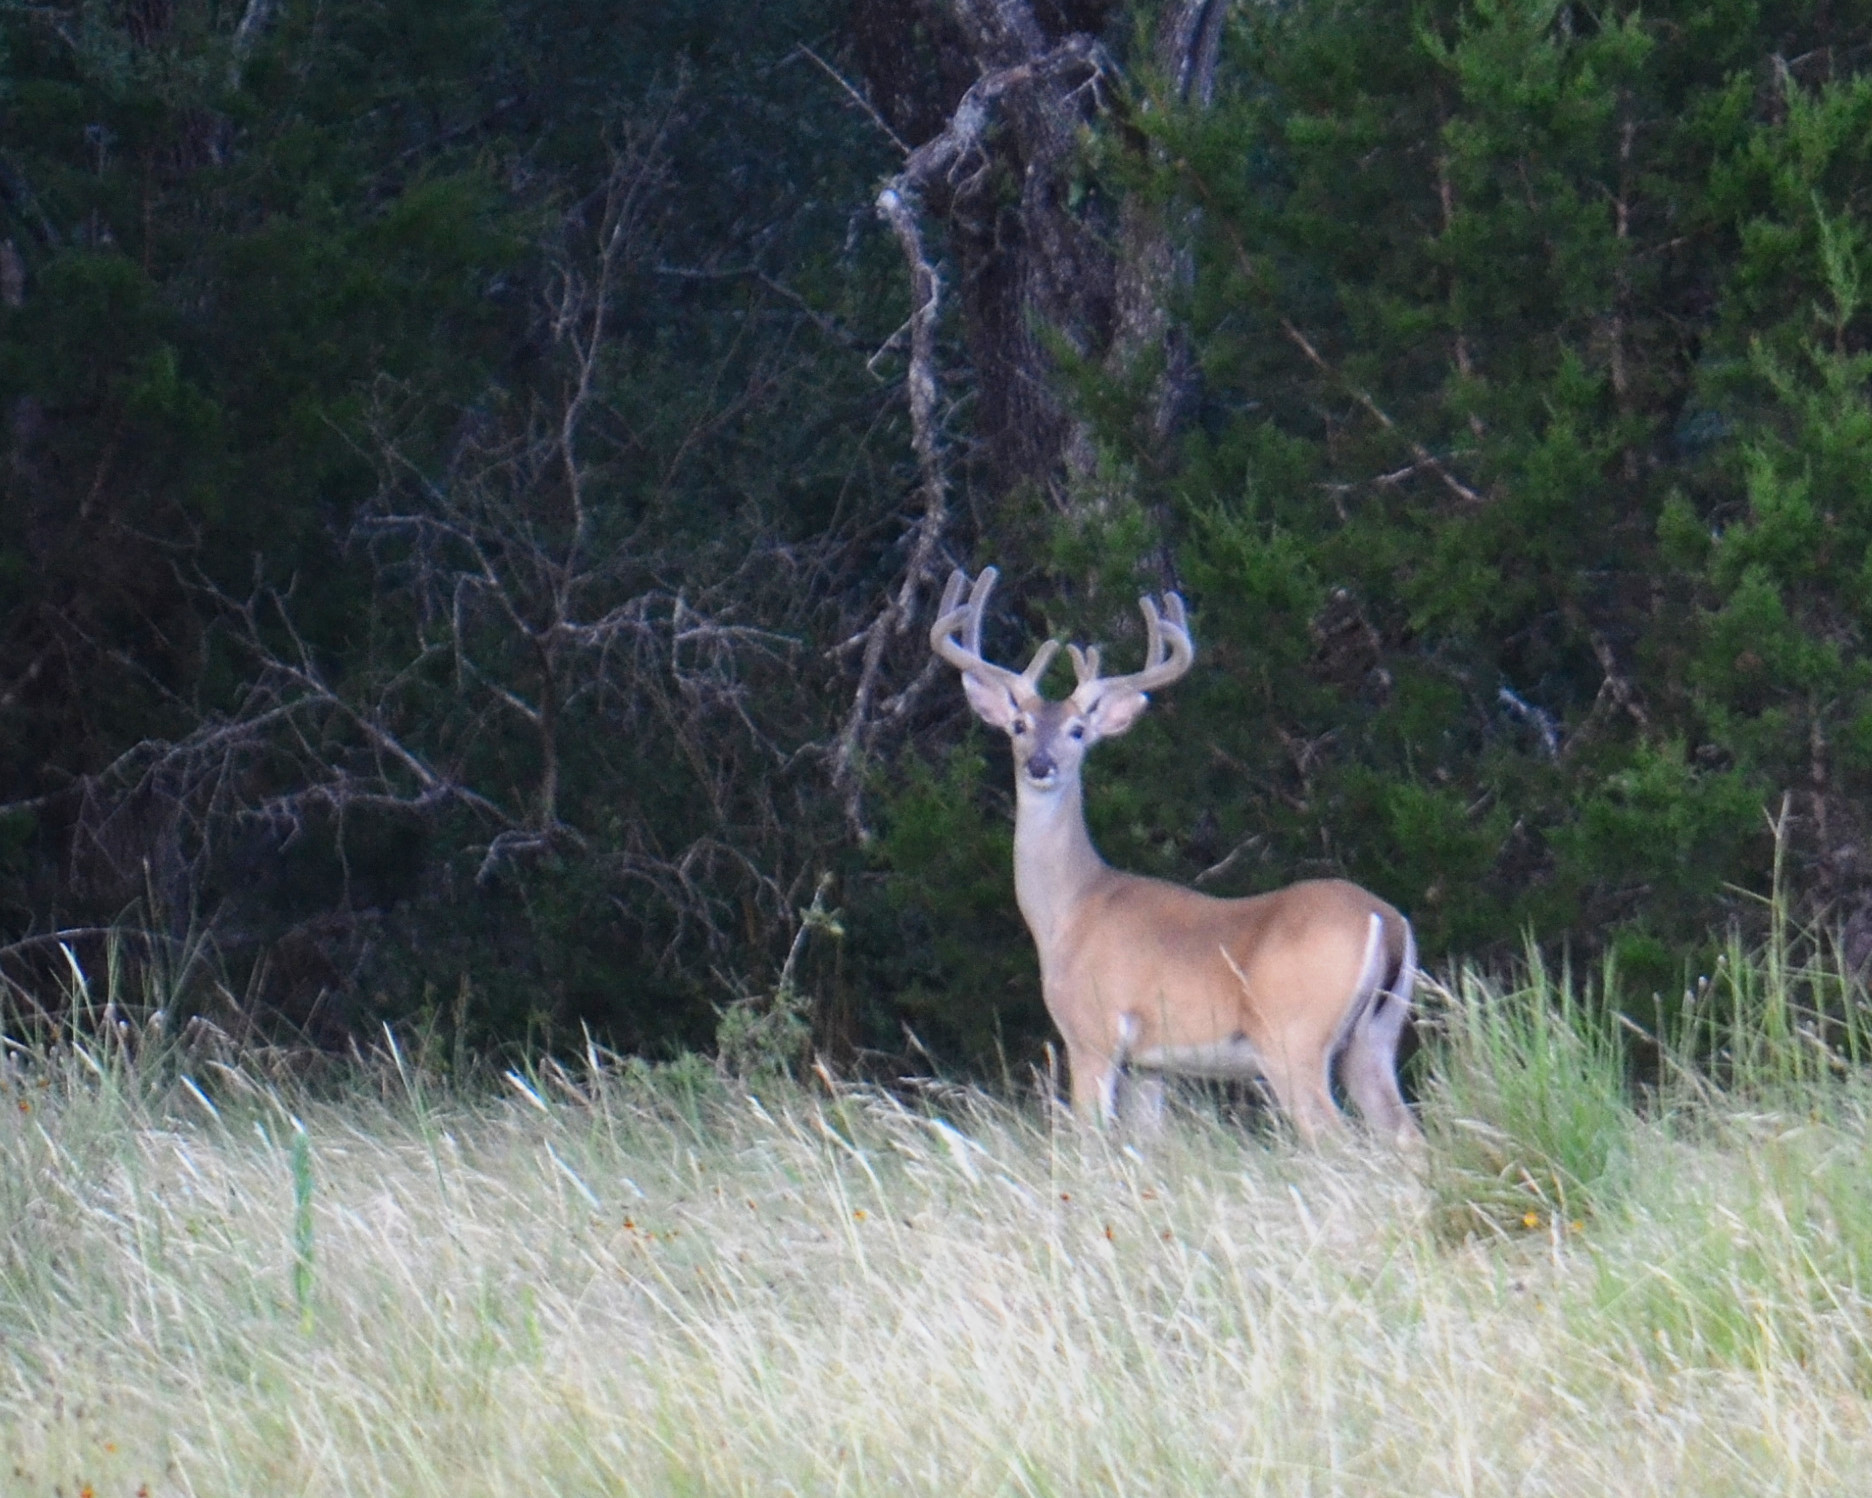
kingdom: Animalia
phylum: Chordata
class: Mammalia
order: Artiodactyla
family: Cervidae
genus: Odocoileus
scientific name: Odocoileus virginianus
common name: White-tailed deer
